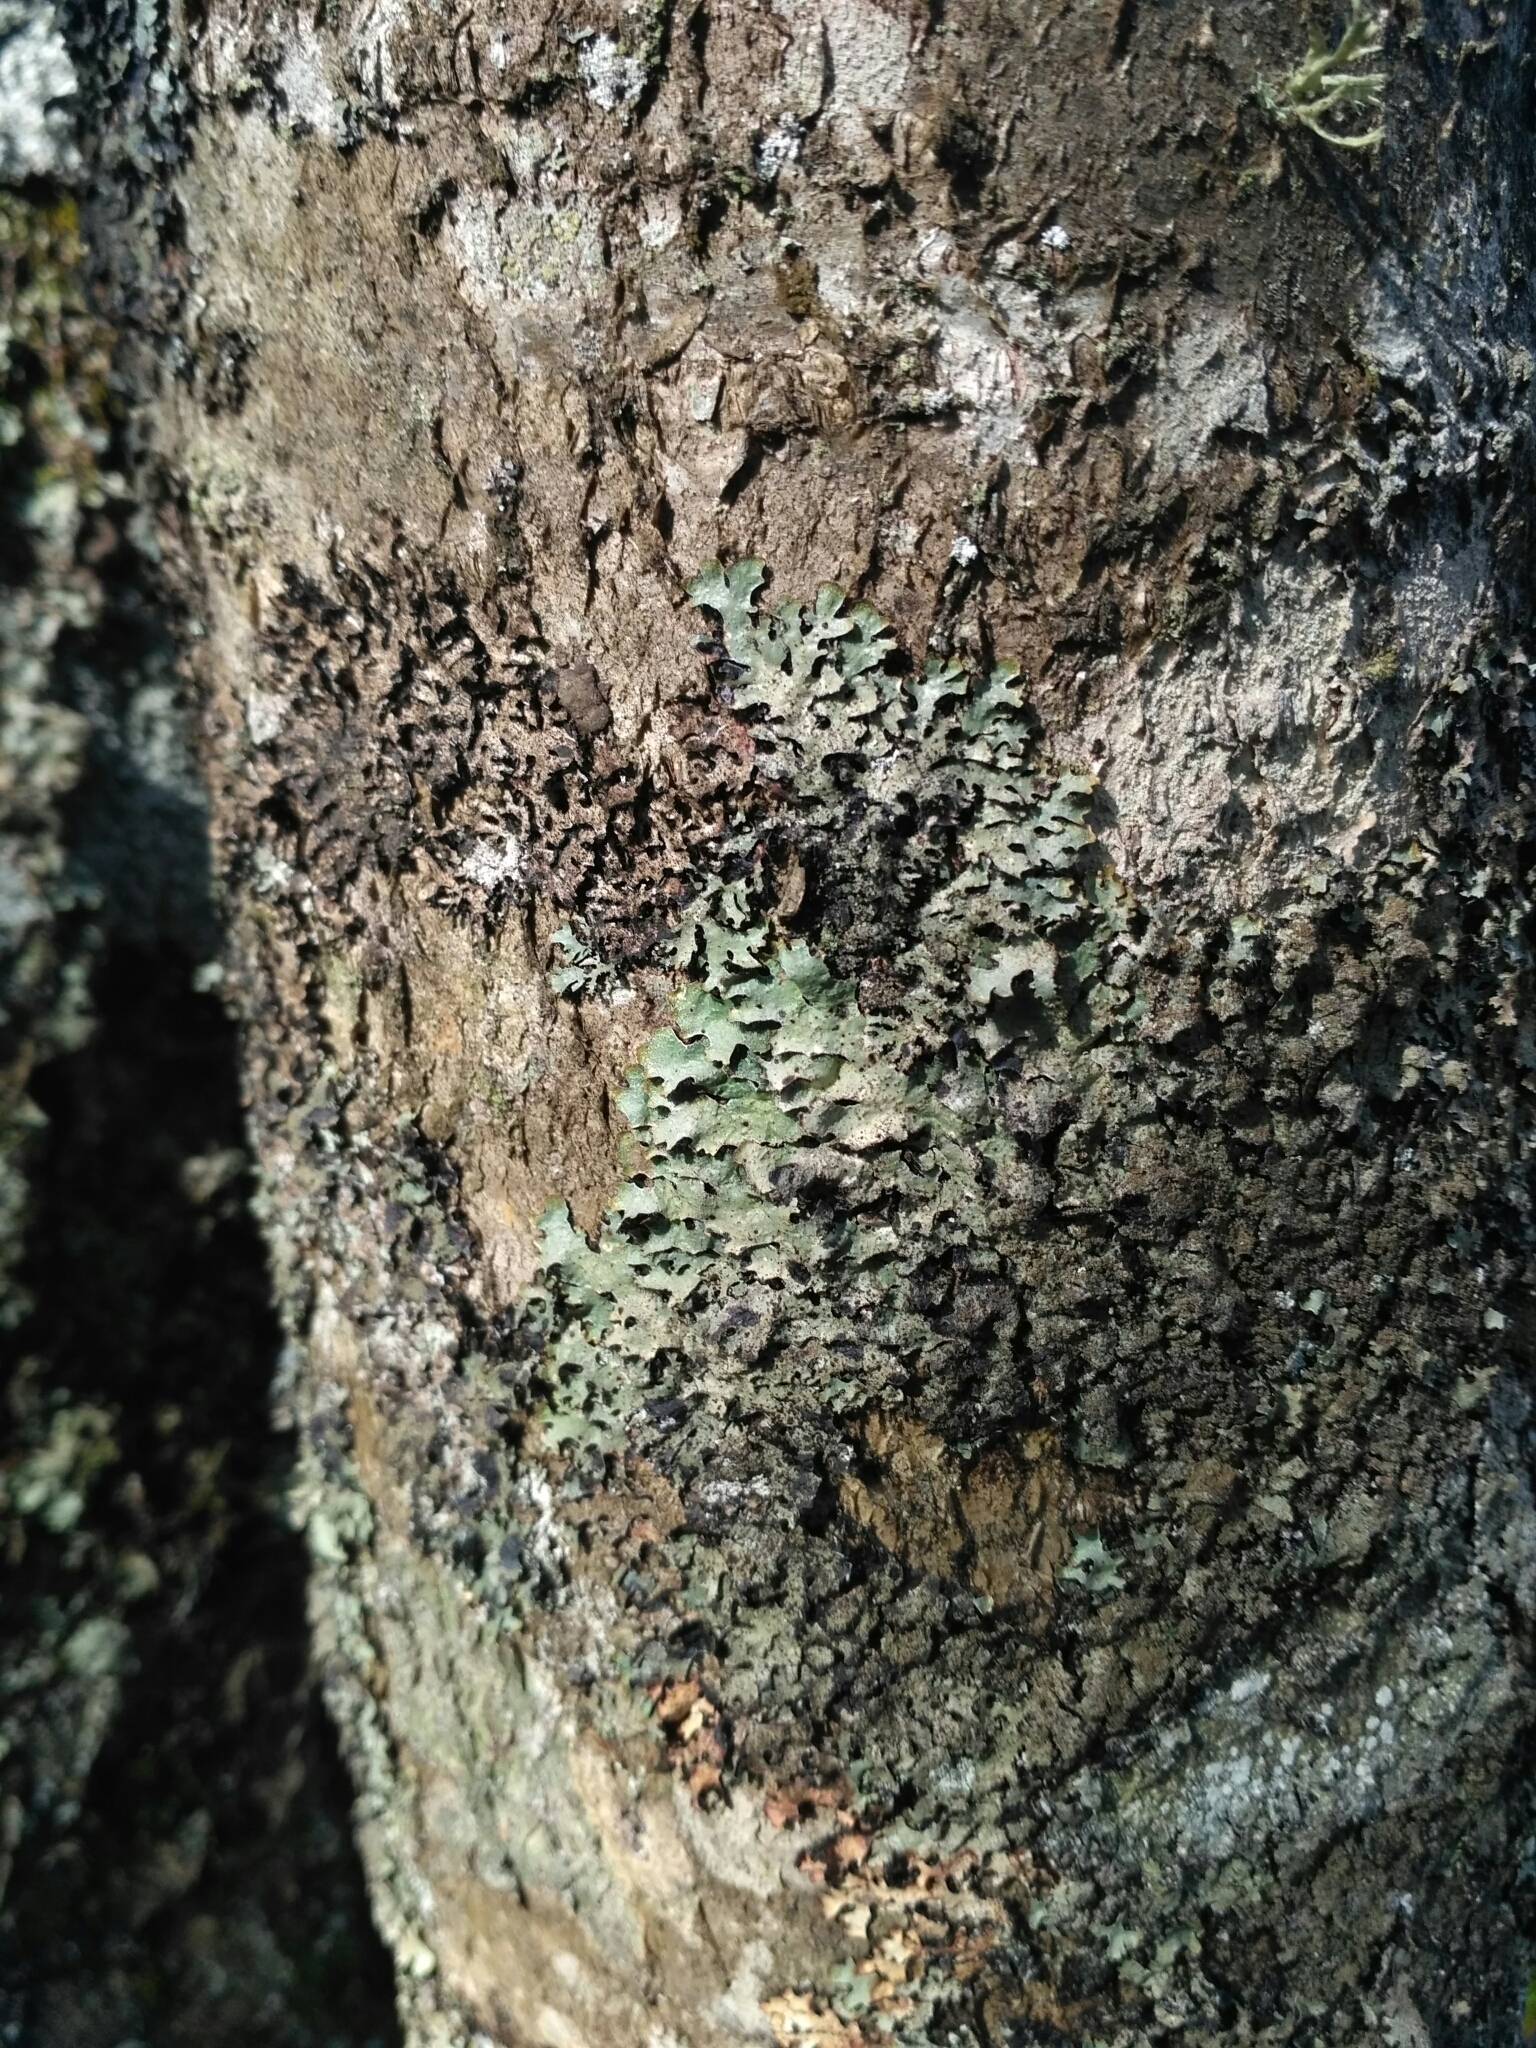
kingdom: Fungi
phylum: Ascomycota
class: Lecanoromycetes
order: Lecanorales
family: Parmeliaceae
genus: Parmelia
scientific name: Parmelia saxatilis
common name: Salted shield lichen
